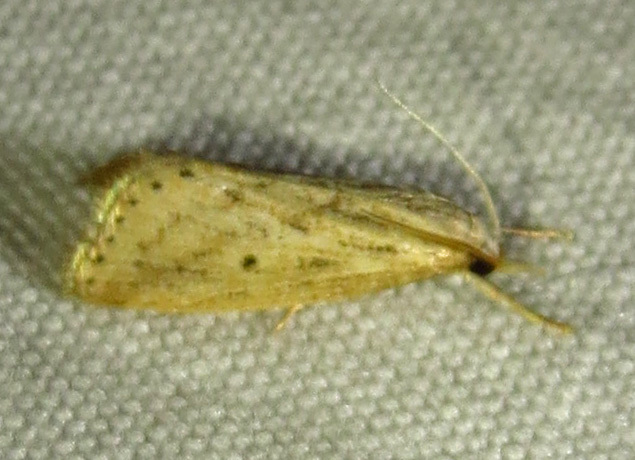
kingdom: Animalia
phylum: Arthropoda
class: Insecta
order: Lepidoptera
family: Crambidae
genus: Diatraea
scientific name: Diatraea lisetta
